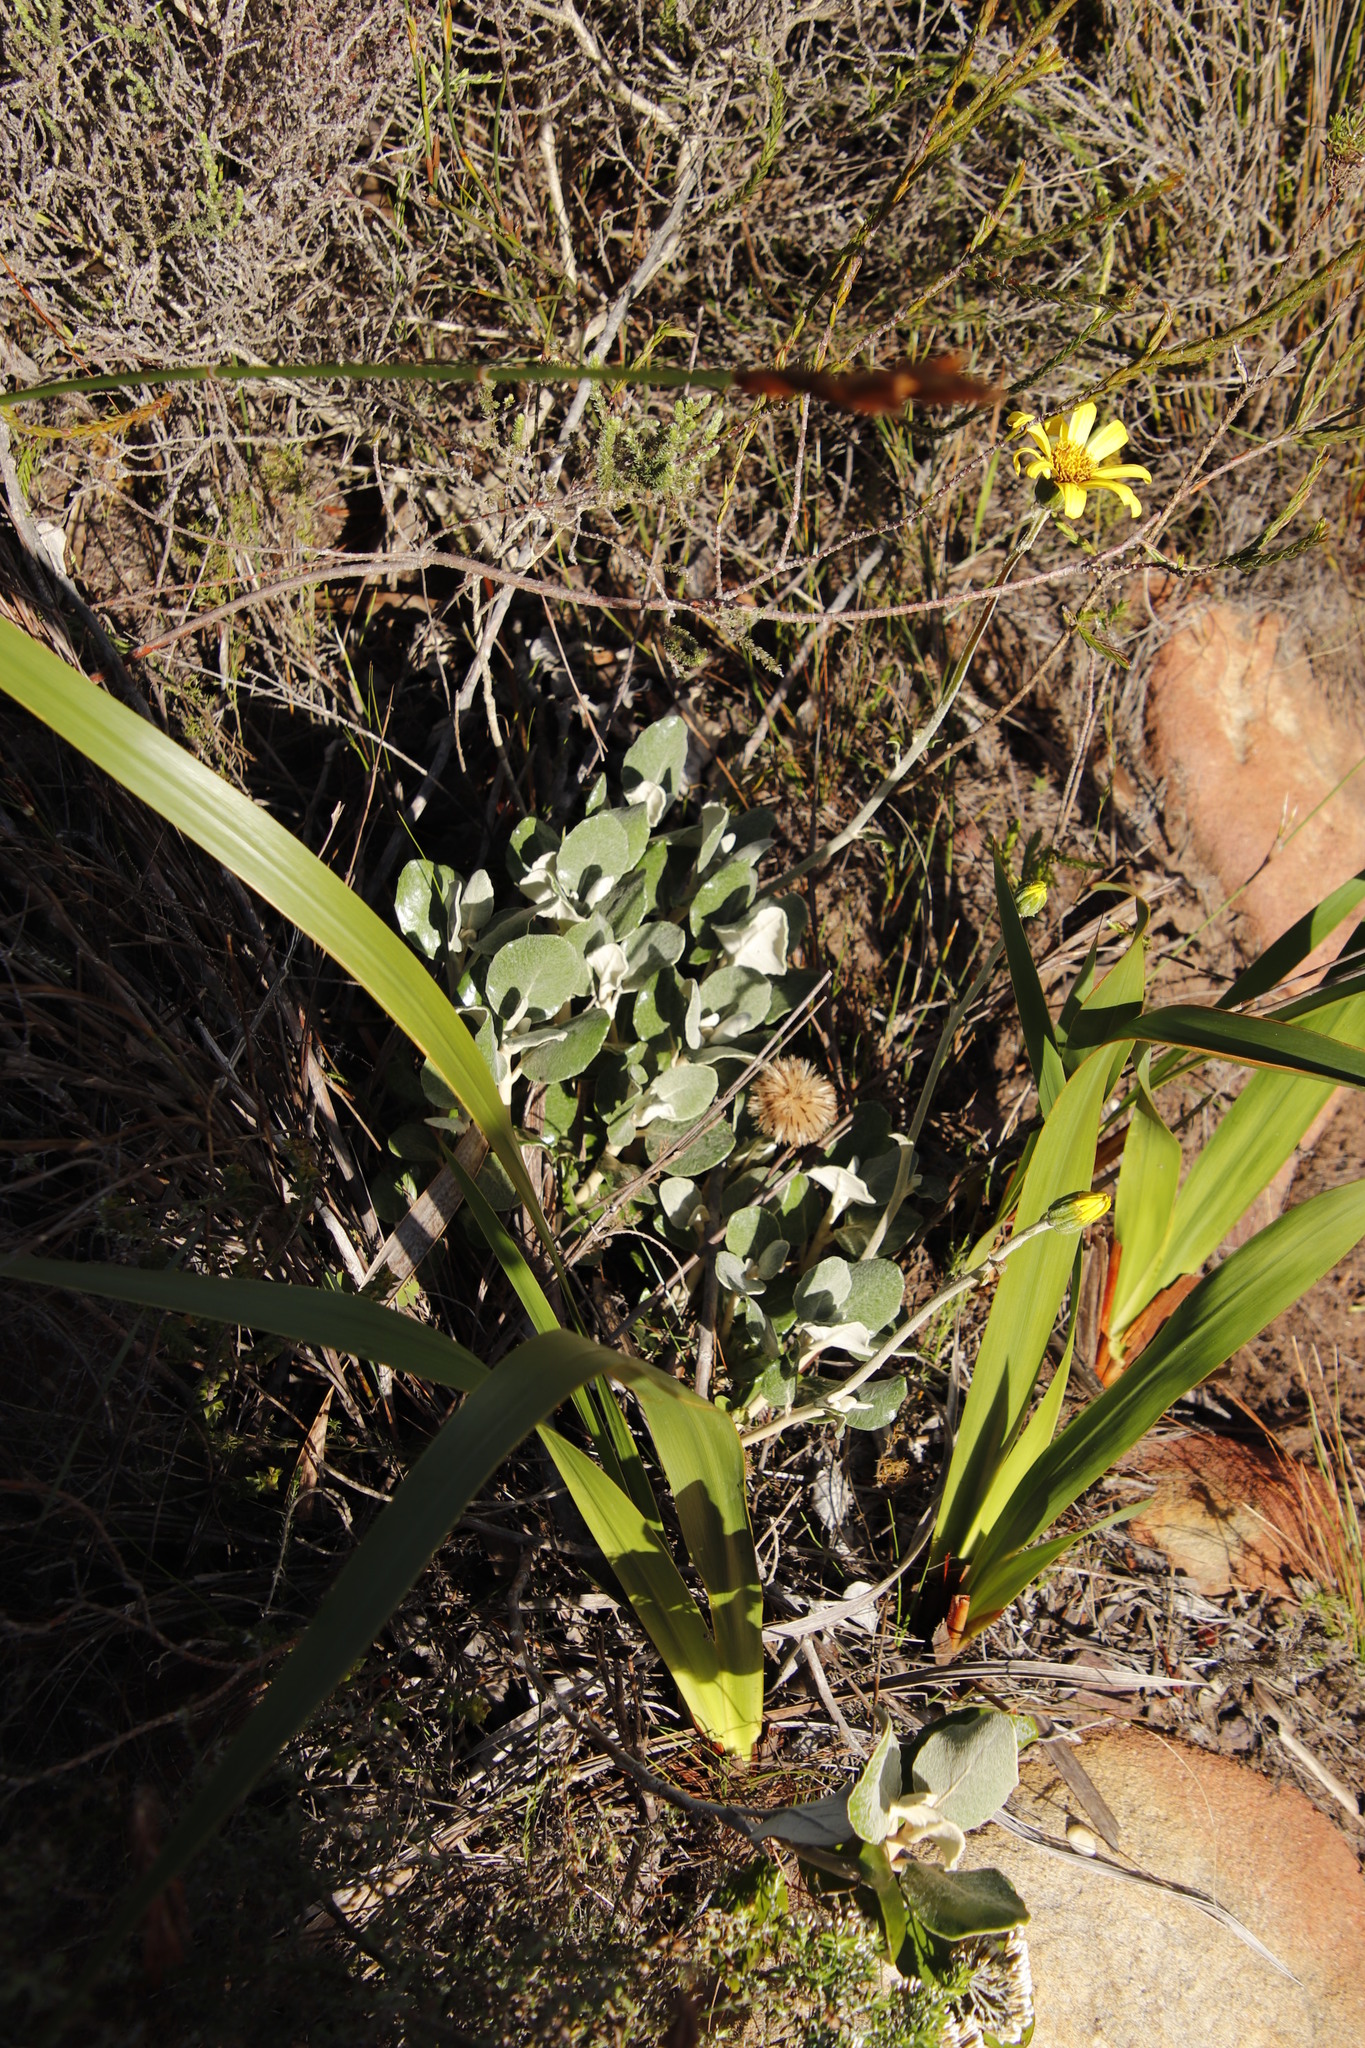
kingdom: Plantae
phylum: Tracheophyta
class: Magnoliopsida
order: Asterales
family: Asteraceae
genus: Capelio
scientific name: Capelio tabularis
